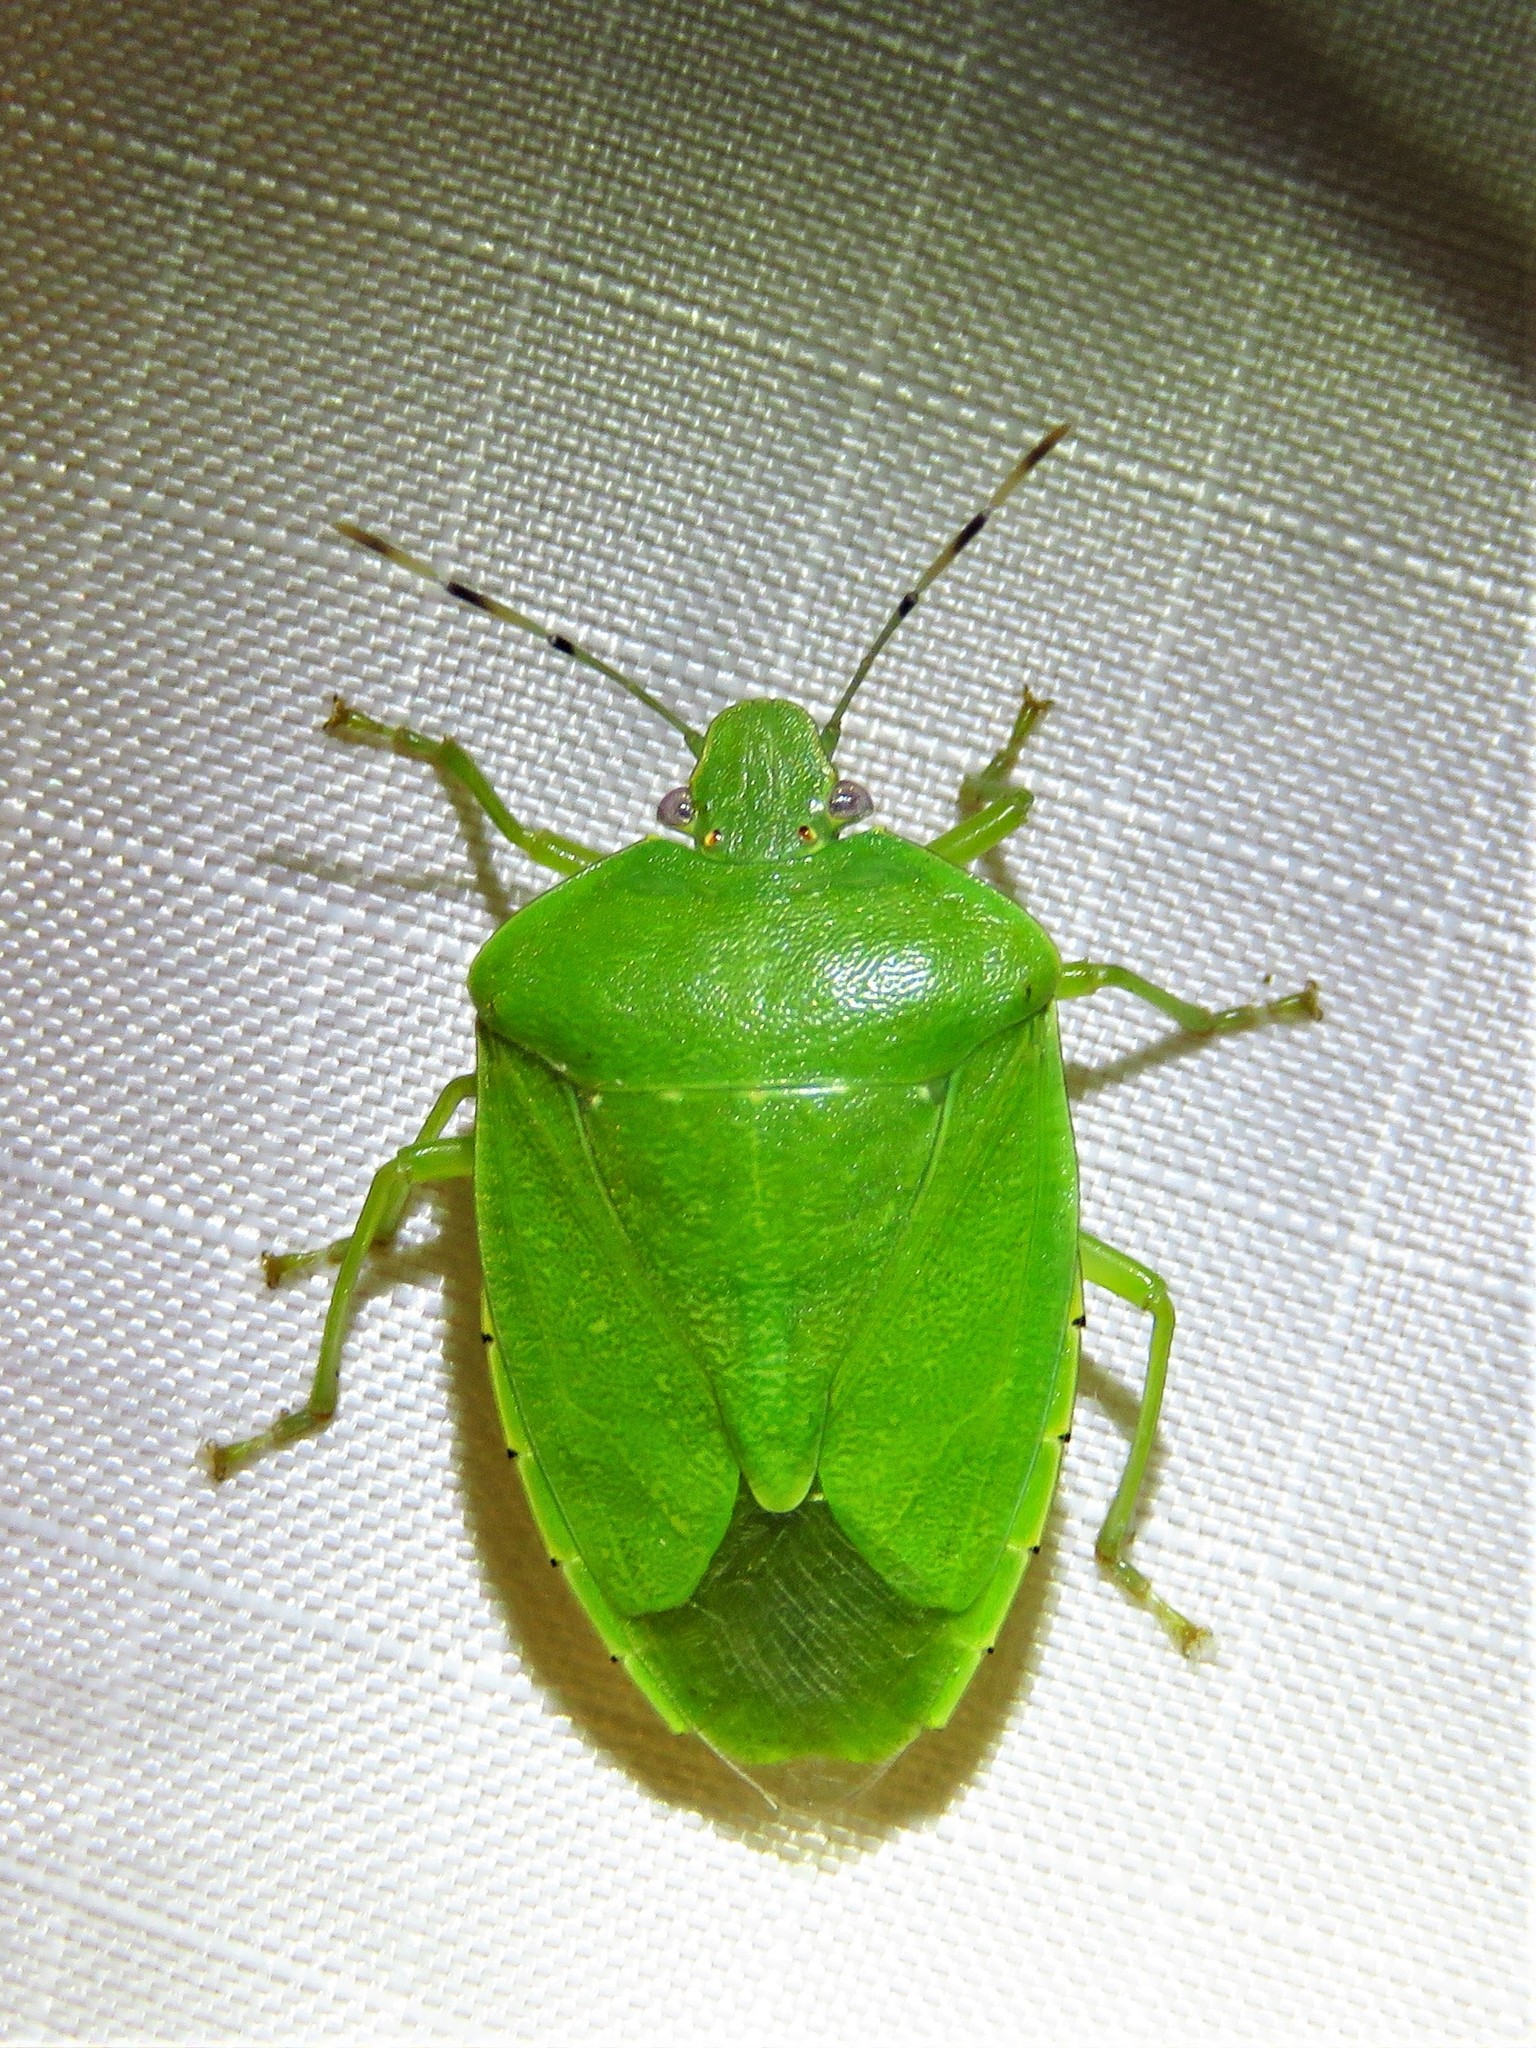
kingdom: Animalia
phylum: Arthropoda
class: Insecta
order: Hemiptera
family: Pentatomidae
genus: Chinavia
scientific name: Chinavia hilaris
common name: Green stink bug
